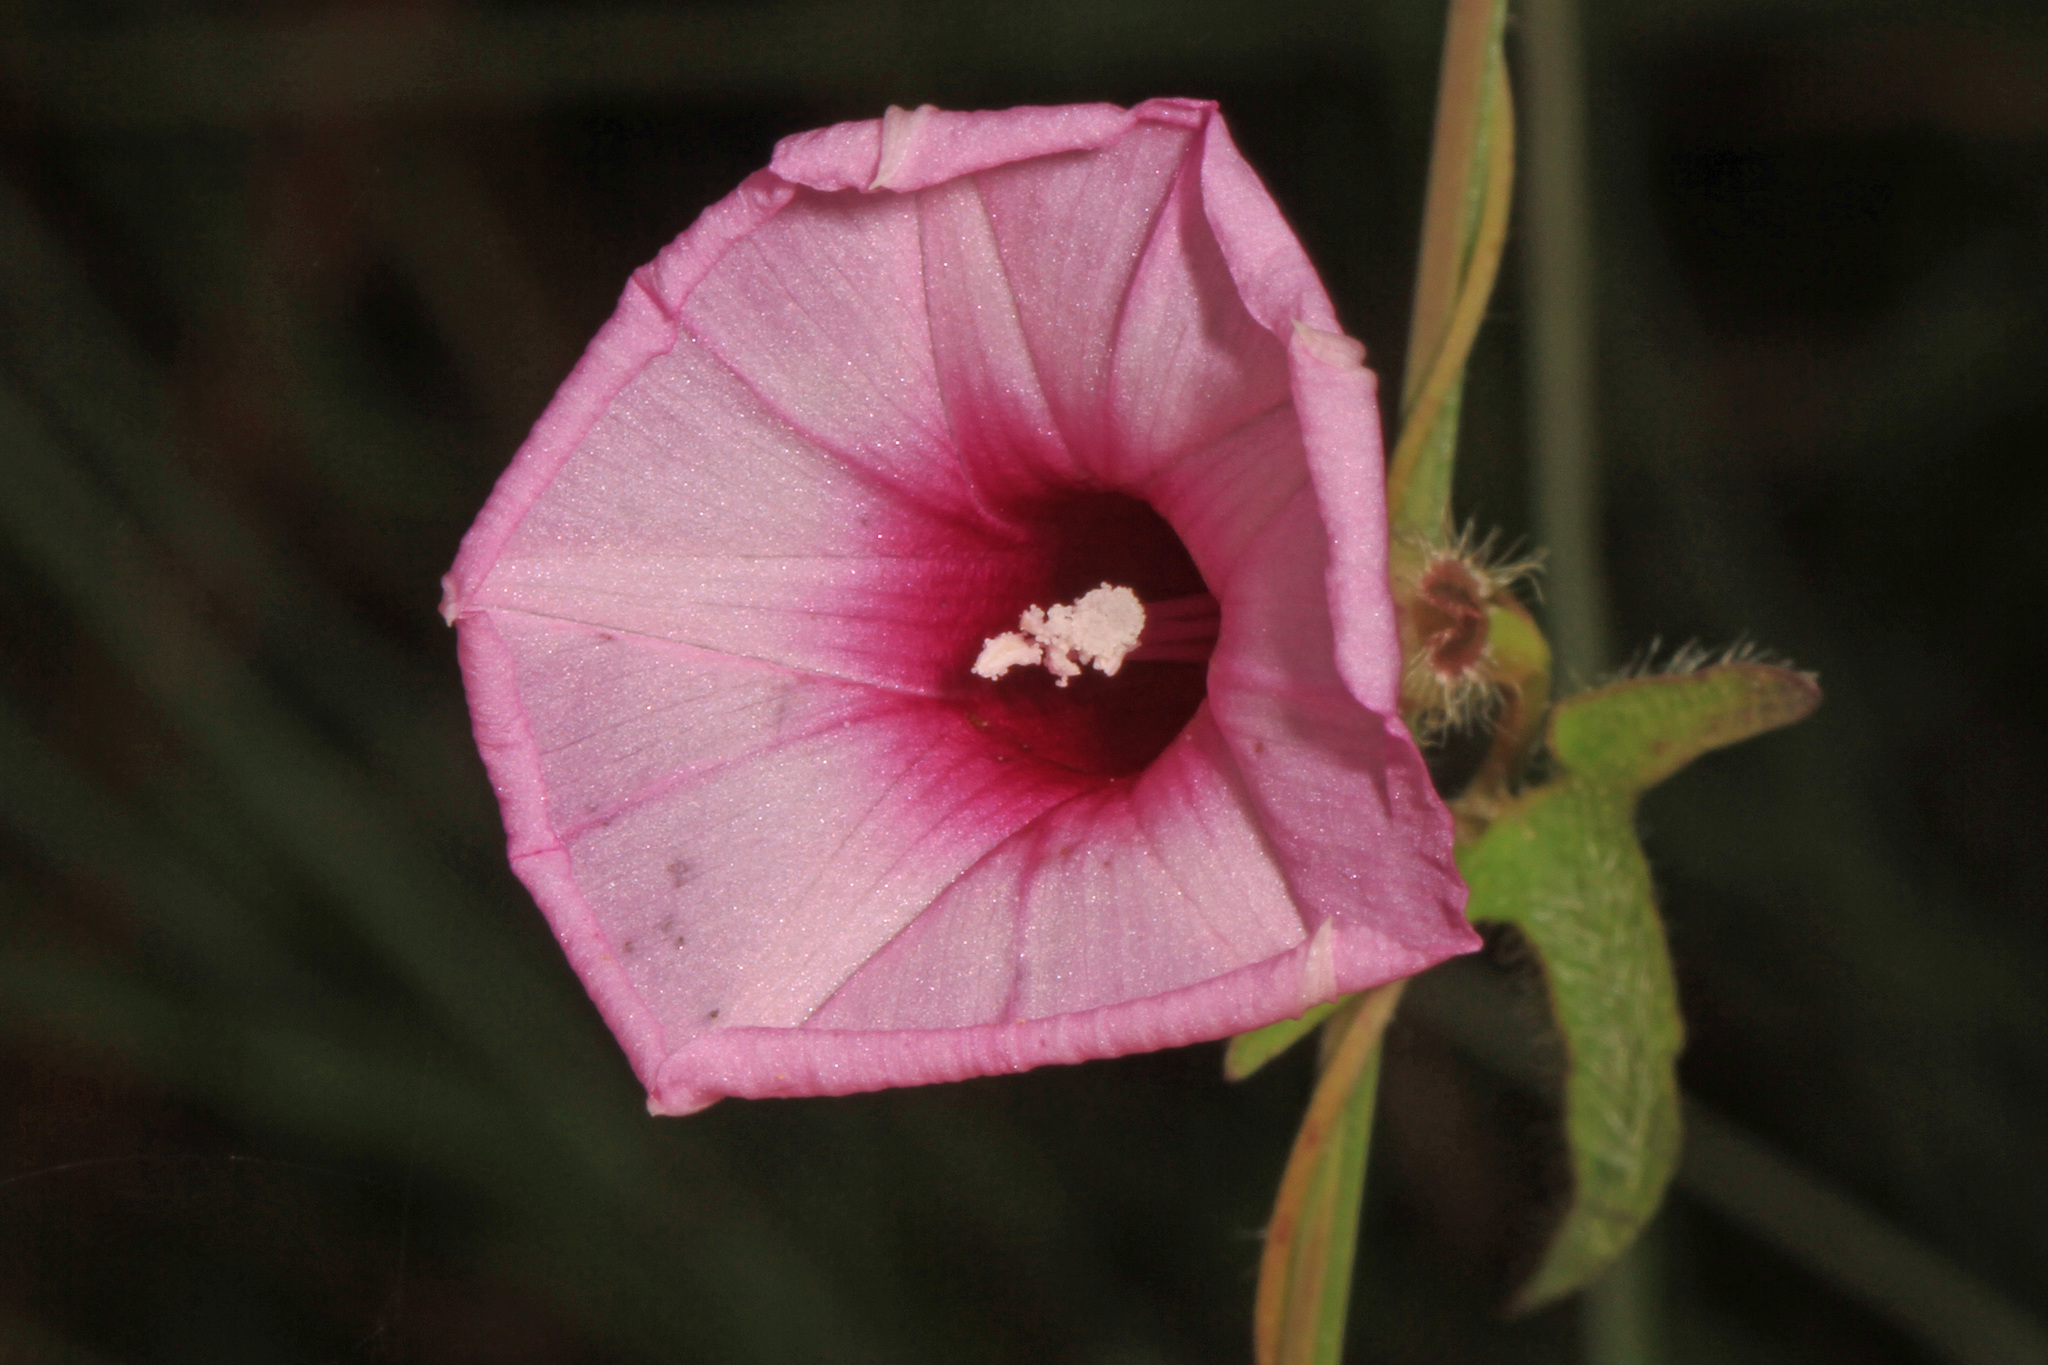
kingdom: Plantae
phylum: Tracheophyta
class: Magnoliopsida
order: Solanales
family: Convolvulaceae
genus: Ipomoea
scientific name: Ipomoea tenuissima
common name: Rockland morning glory
